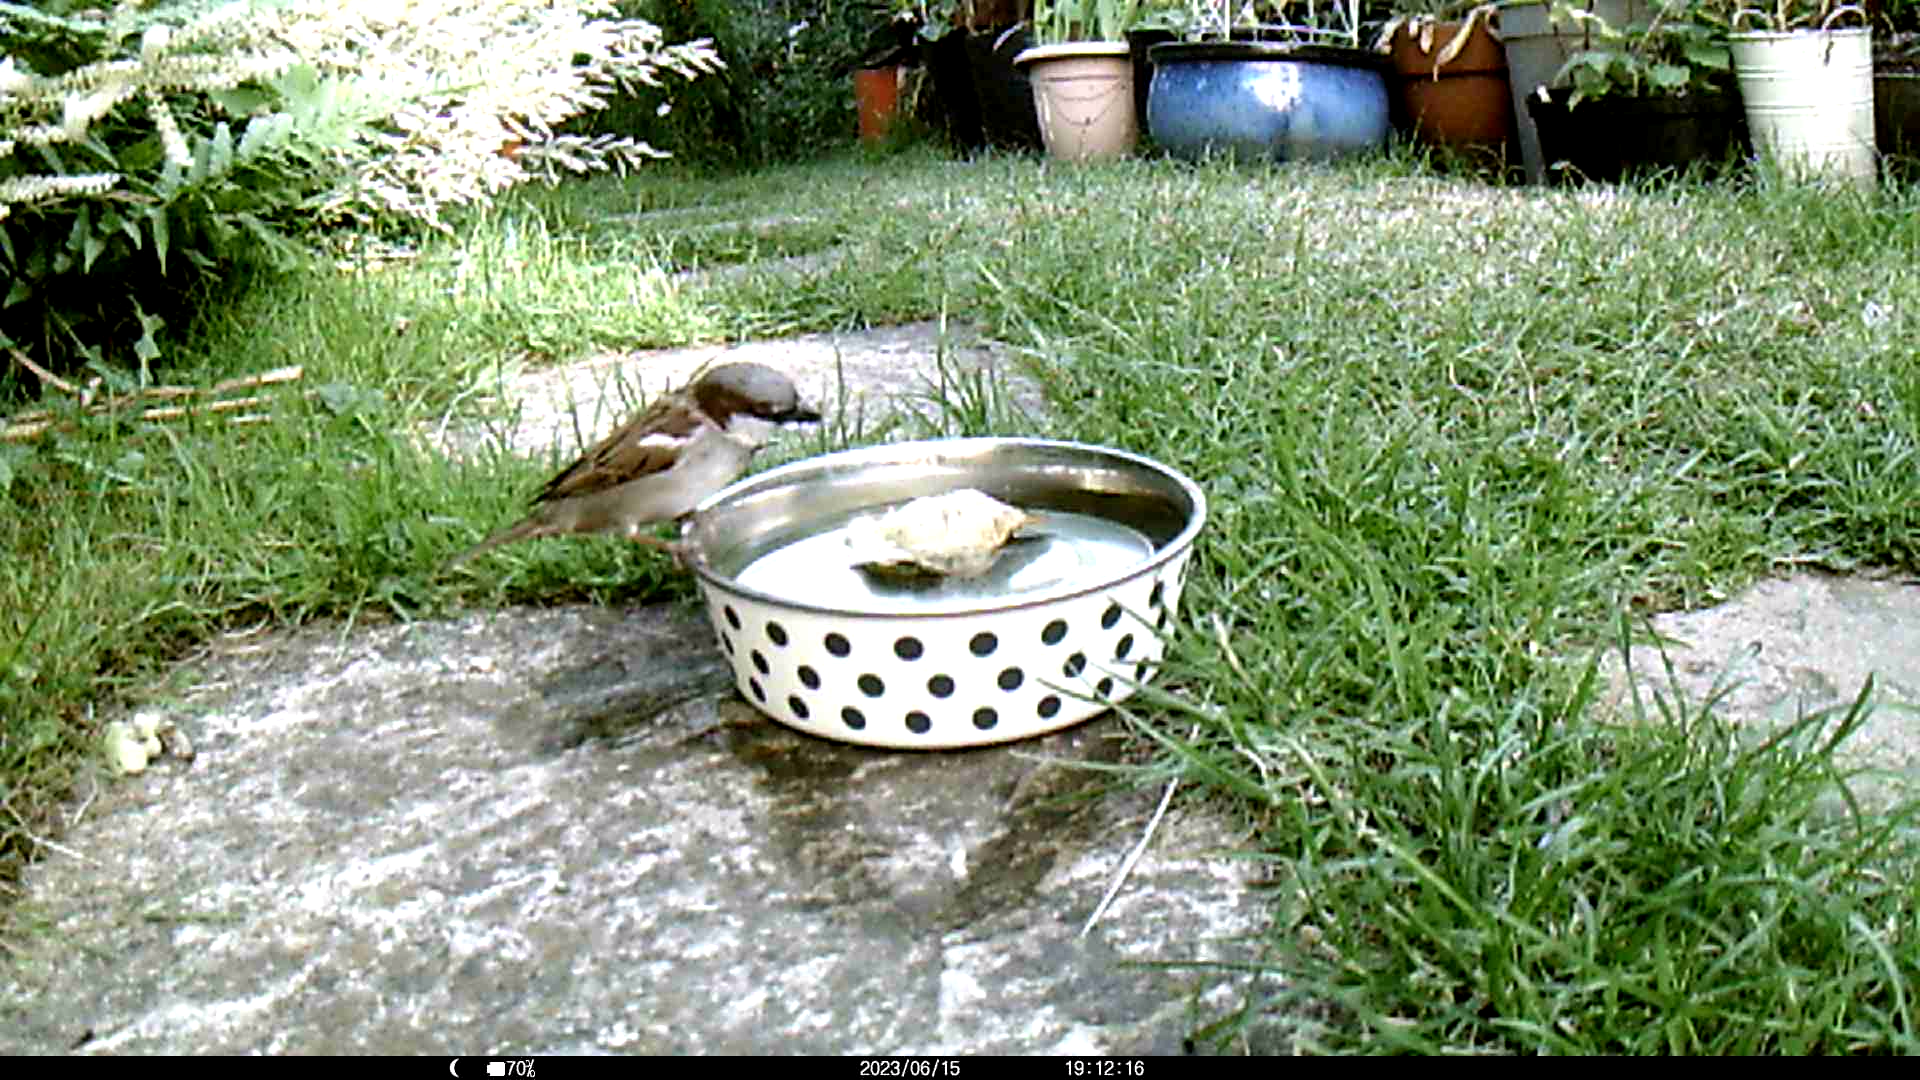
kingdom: Animalia
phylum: Chordata
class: Aves
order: Passeriformes
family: Passeridae
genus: Passer
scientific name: Passer domesticus
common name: House sparrow
